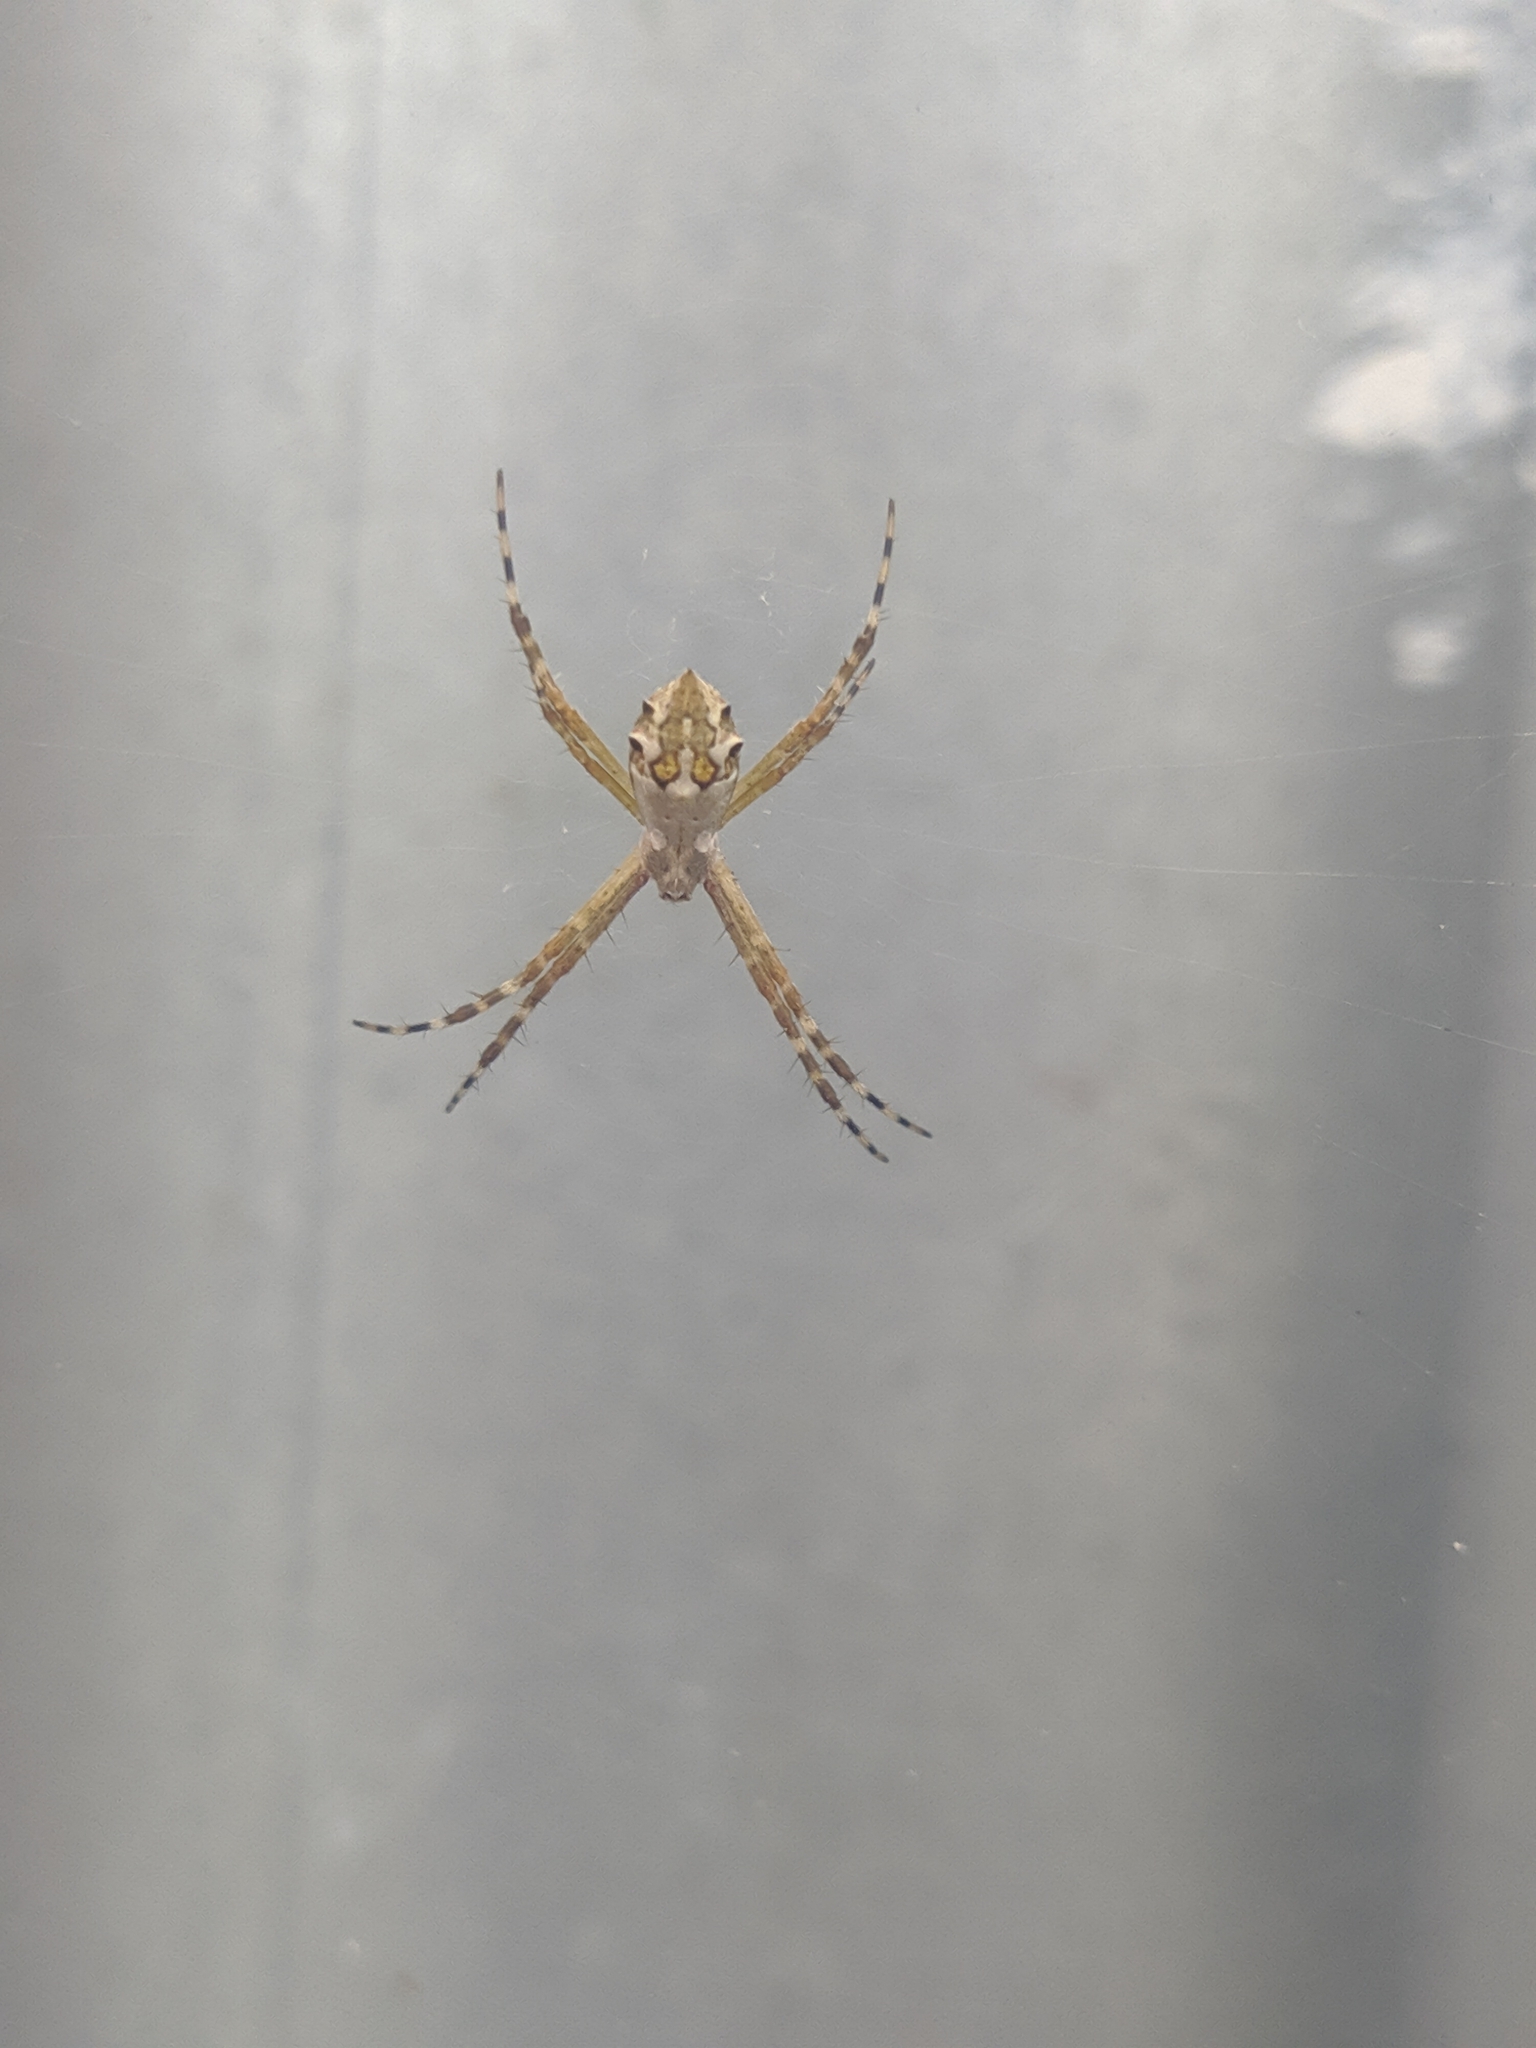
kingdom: Animalia
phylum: Arthropoda
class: Arachnida
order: Araneae
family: Araneidae
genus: Argiope
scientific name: Argiope argentata
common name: Orb weavers
